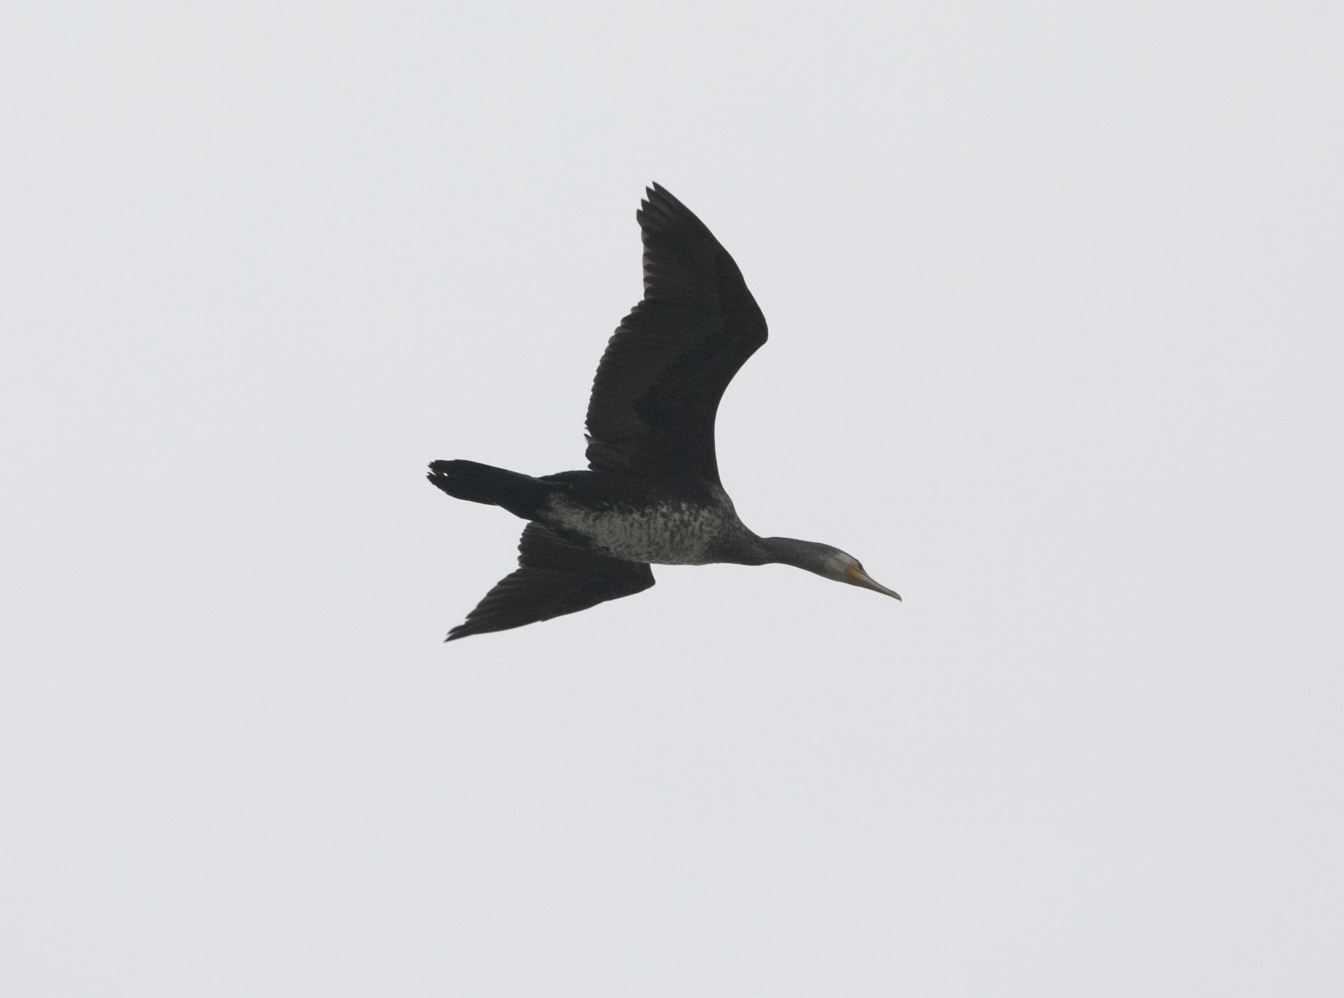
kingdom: Animalia
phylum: Chordata
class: Aves
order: Suliformes
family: Phalacrocoracidae
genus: Phalacrocorax
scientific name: Phalacrocorax carbo
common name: Great cormorant
